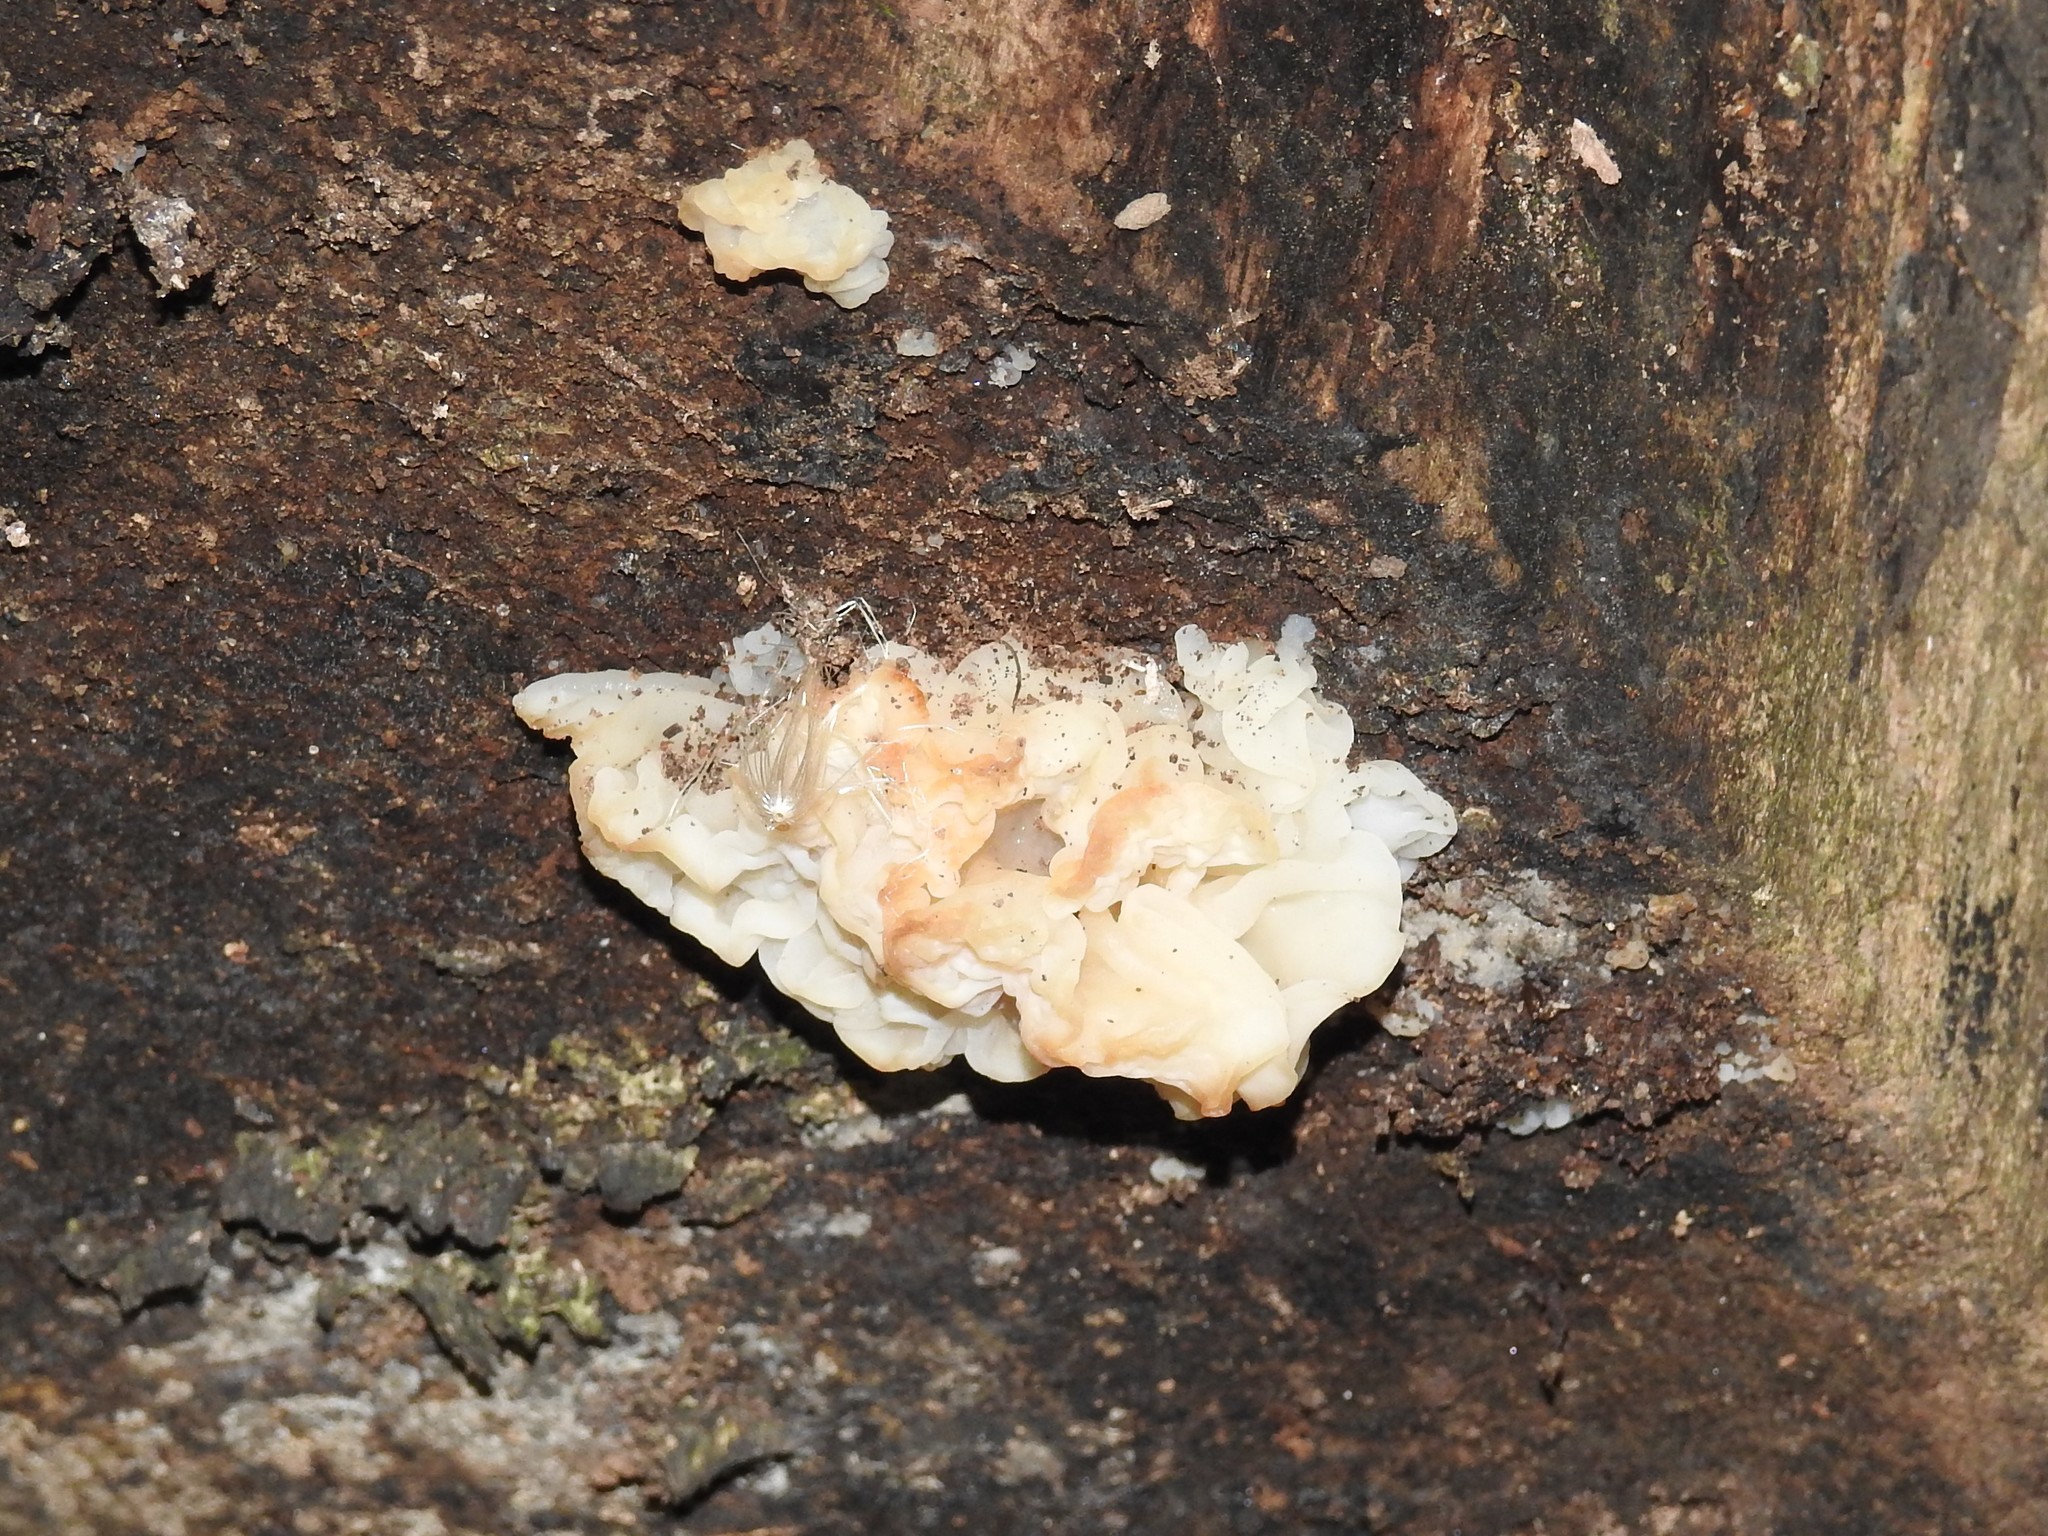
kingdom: Fungi
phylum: Basidiomycota
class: Agaricomycetes
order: Auriculariales
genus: Ductifera
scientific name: Ductifera pululahuana
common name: White jelly fungus
